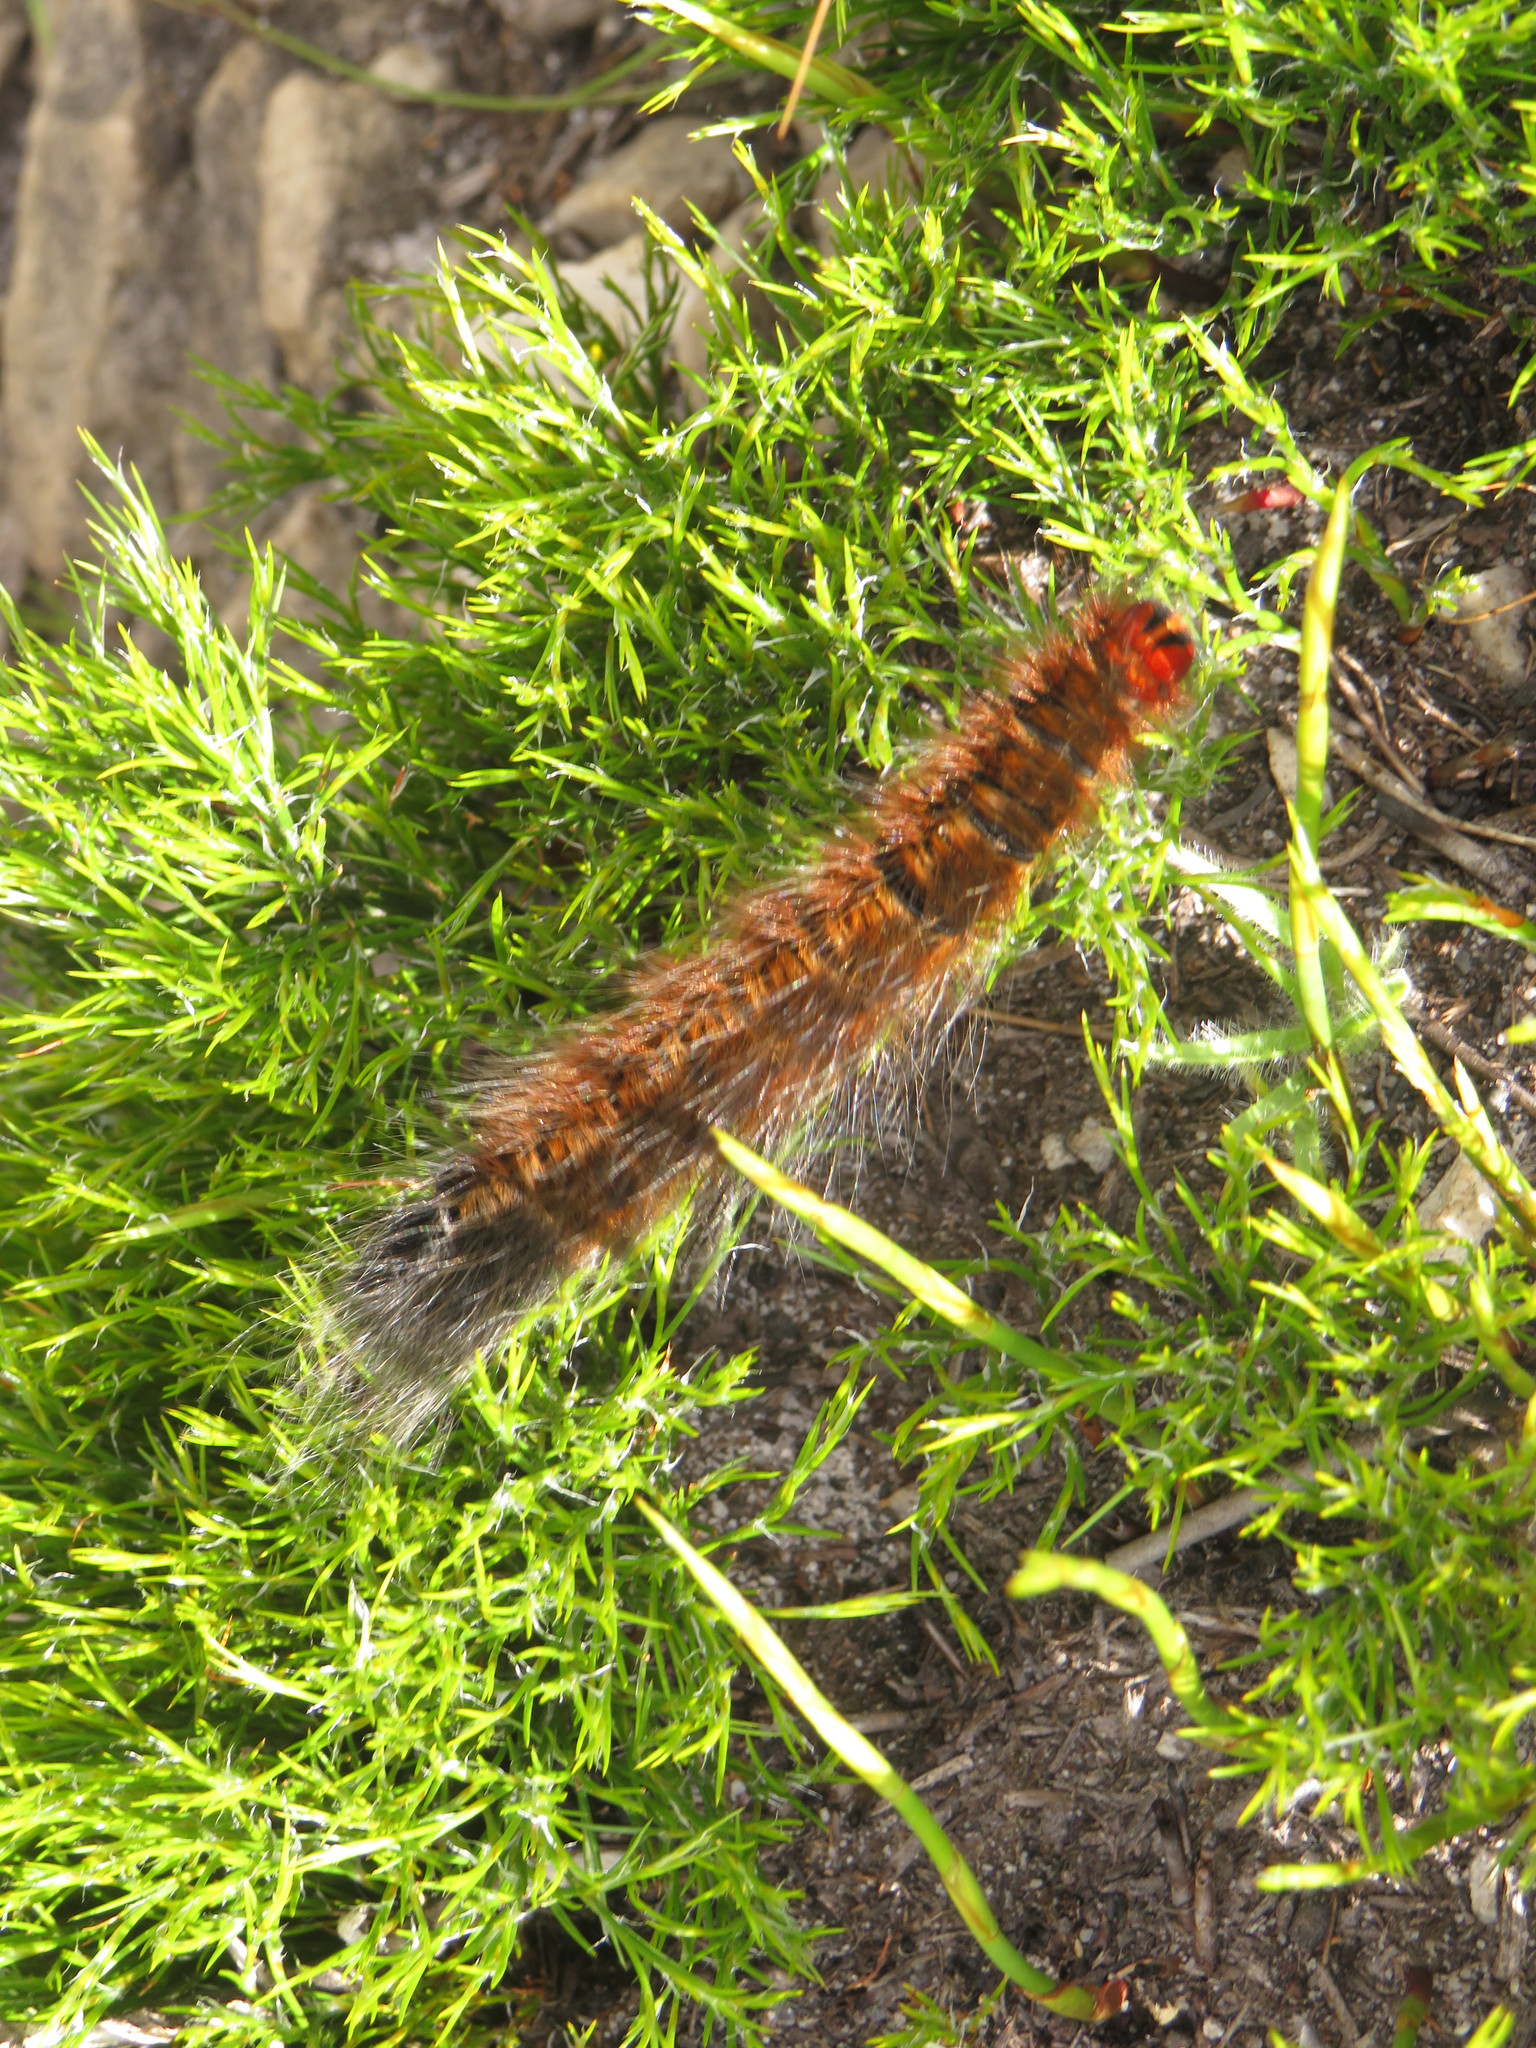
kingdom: Animalia
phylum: Arthropoda
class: Insecta
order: Lepidoptera
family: Lasiocampidae
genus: Mesocelis
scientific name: Mesocelis monticola
